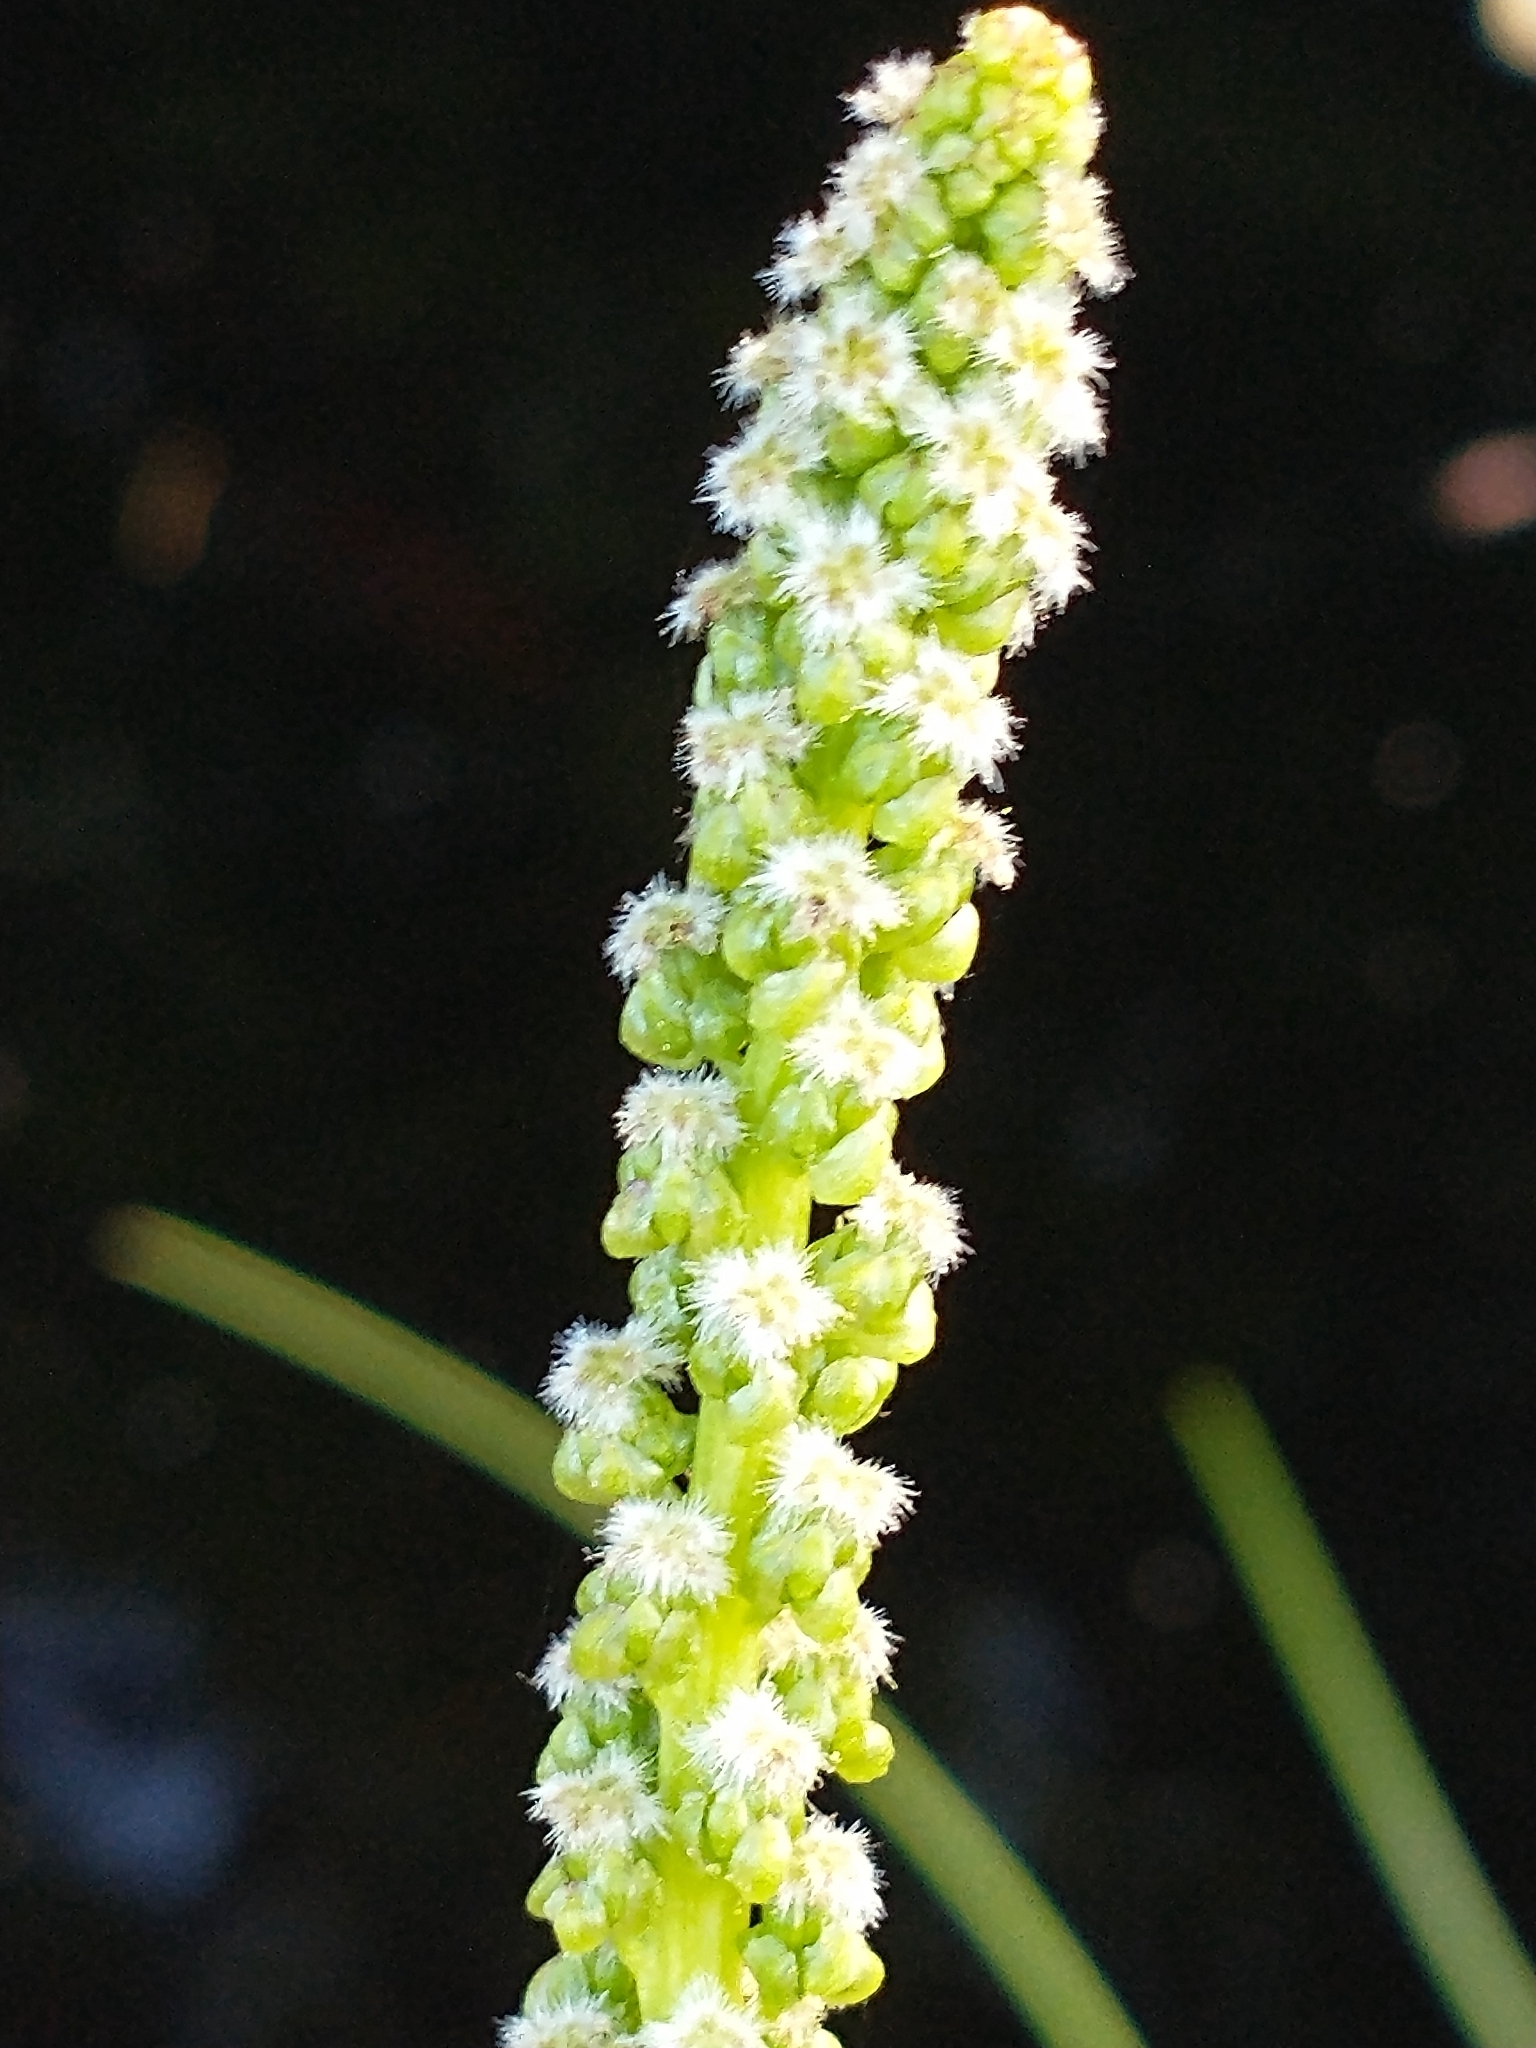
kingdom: Plantae
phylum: Tracheophyta
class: Liliopsida
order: Alismatales
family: Juncaginaceae
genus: Triglochin
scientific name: Triglochin maritima
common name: Sea arrowgrass
